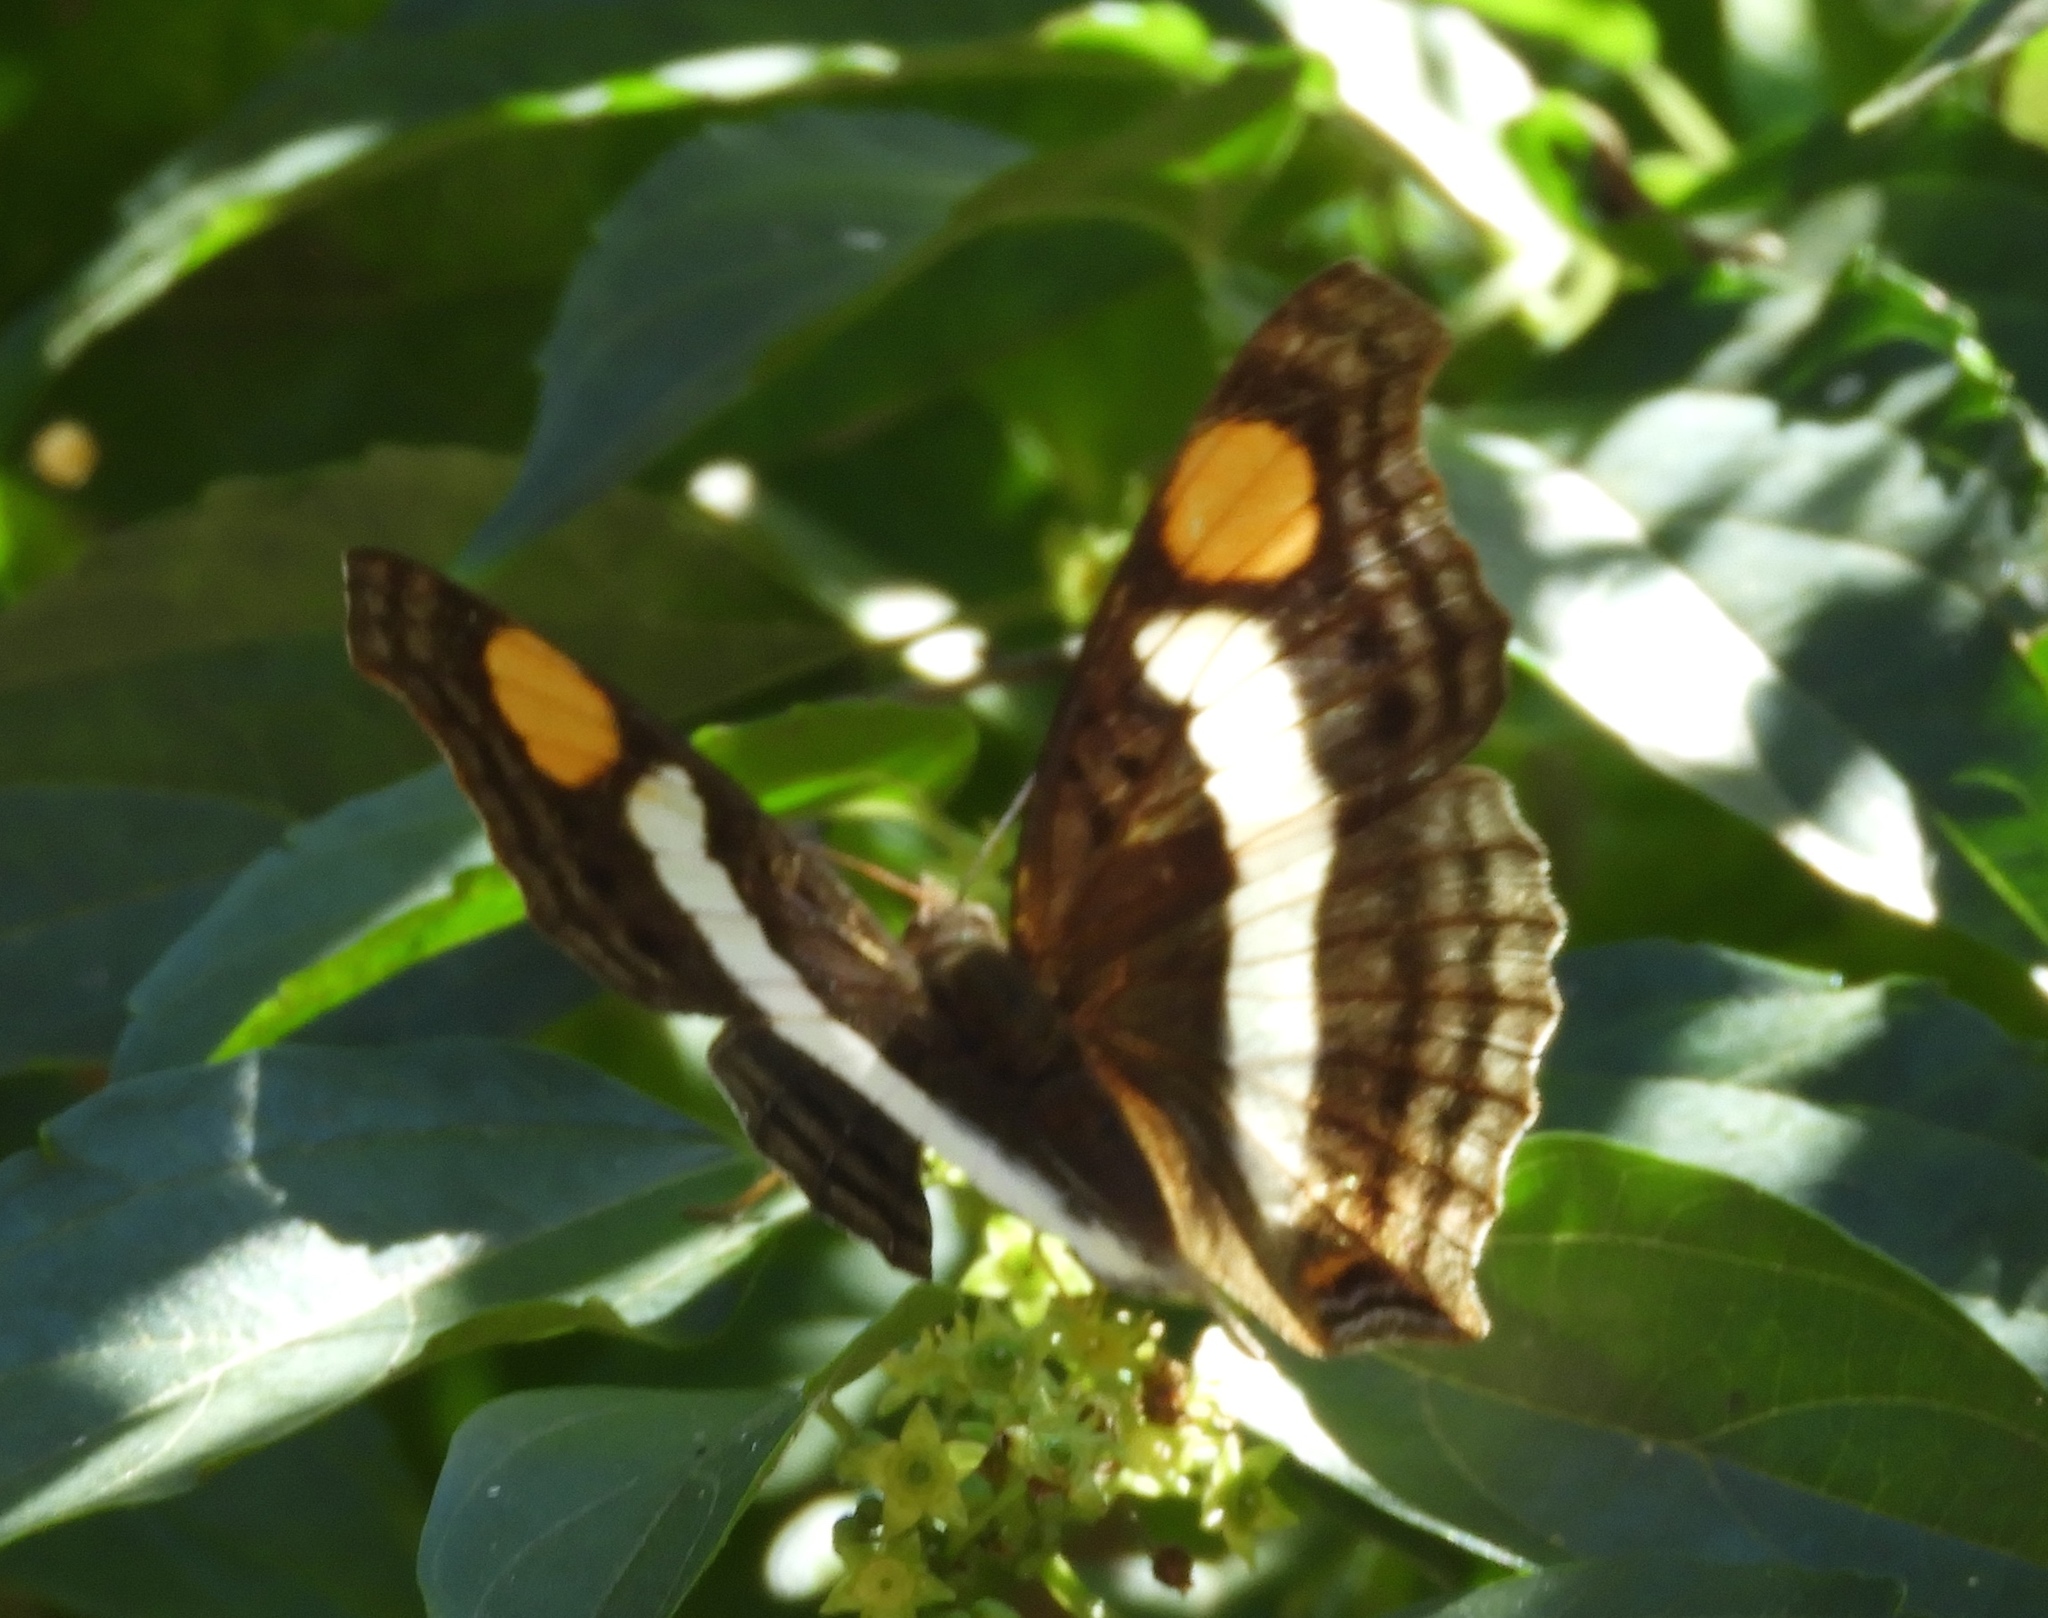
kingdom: Animalia
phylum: Arthropoda
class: Insecta
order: Lepidoptera
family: Nymphalidae
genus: Doxocopa
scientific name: Doxocopa laure
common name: Silver emperor
